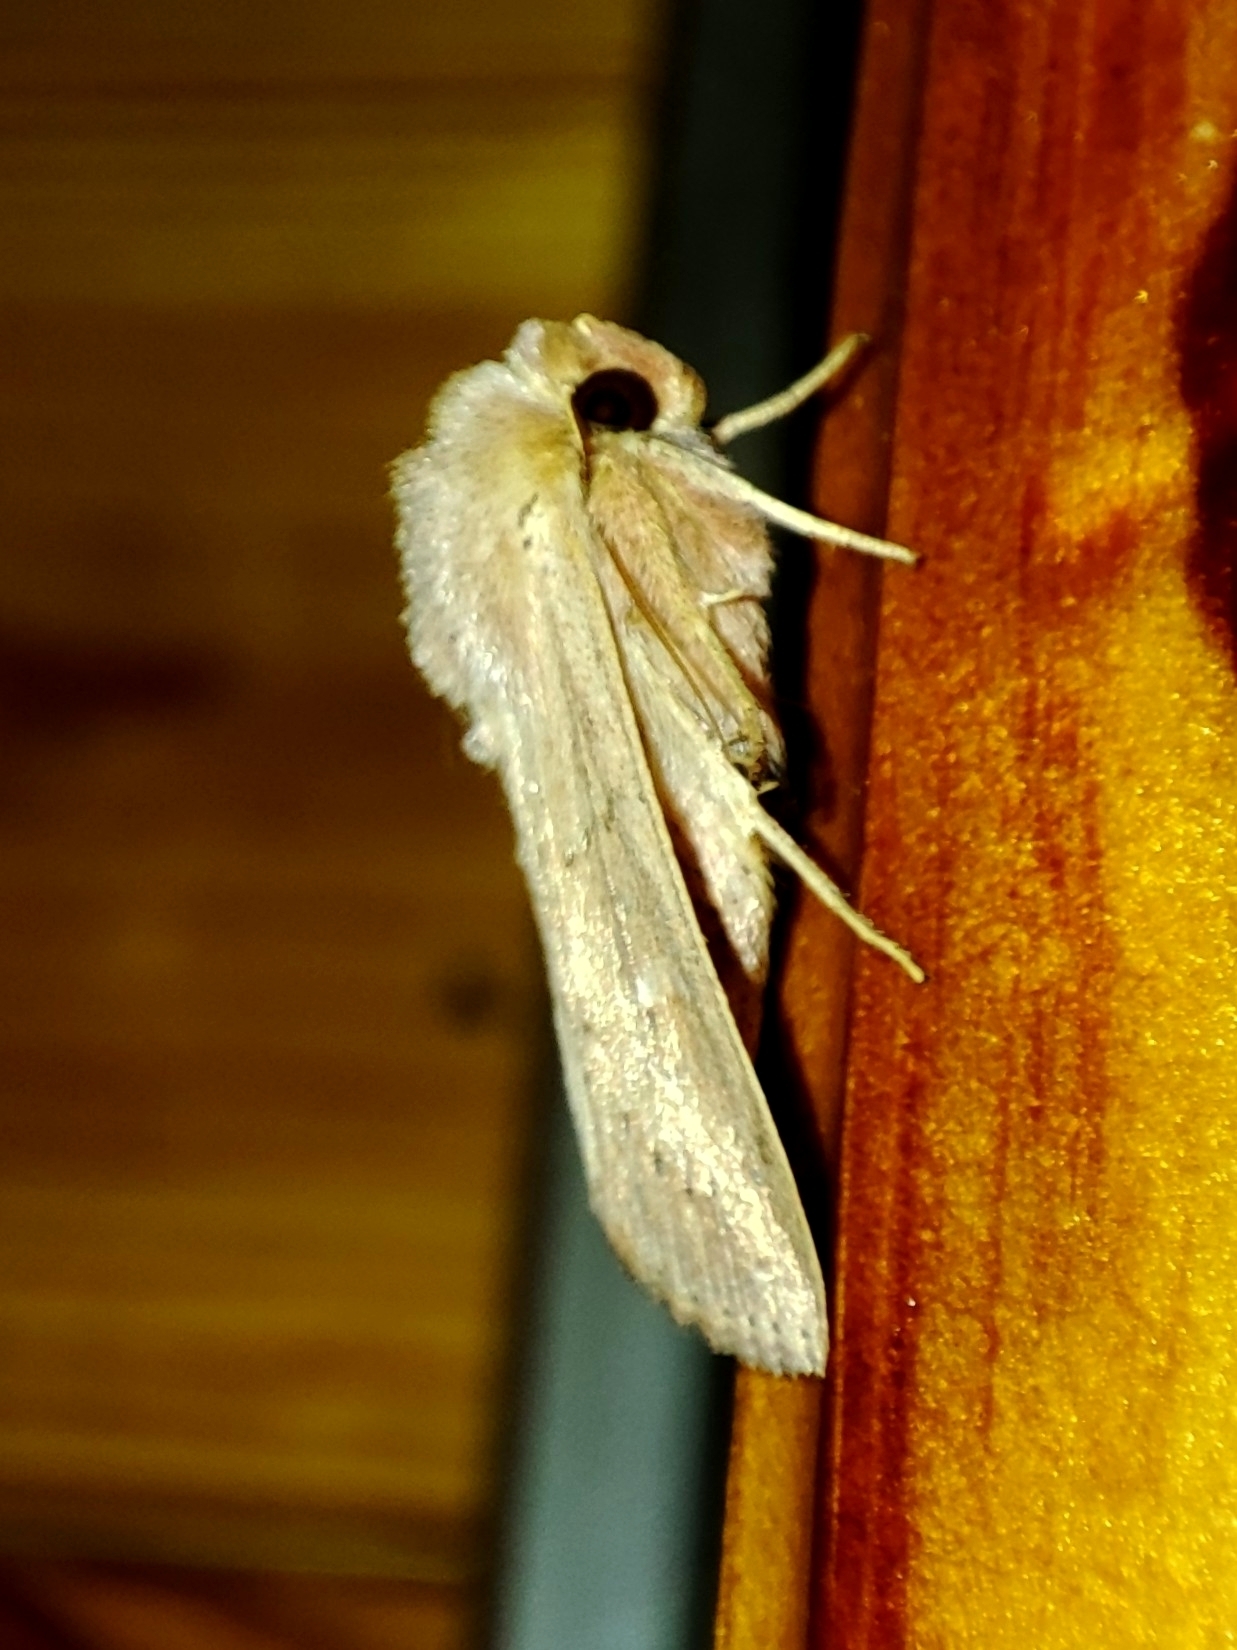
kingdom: Animalia
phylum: Arthropoda
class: Insecta
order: Lepidoptera
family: Noctuidae
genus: Mythimna
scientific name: Mythimna ferrago
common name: Clay
